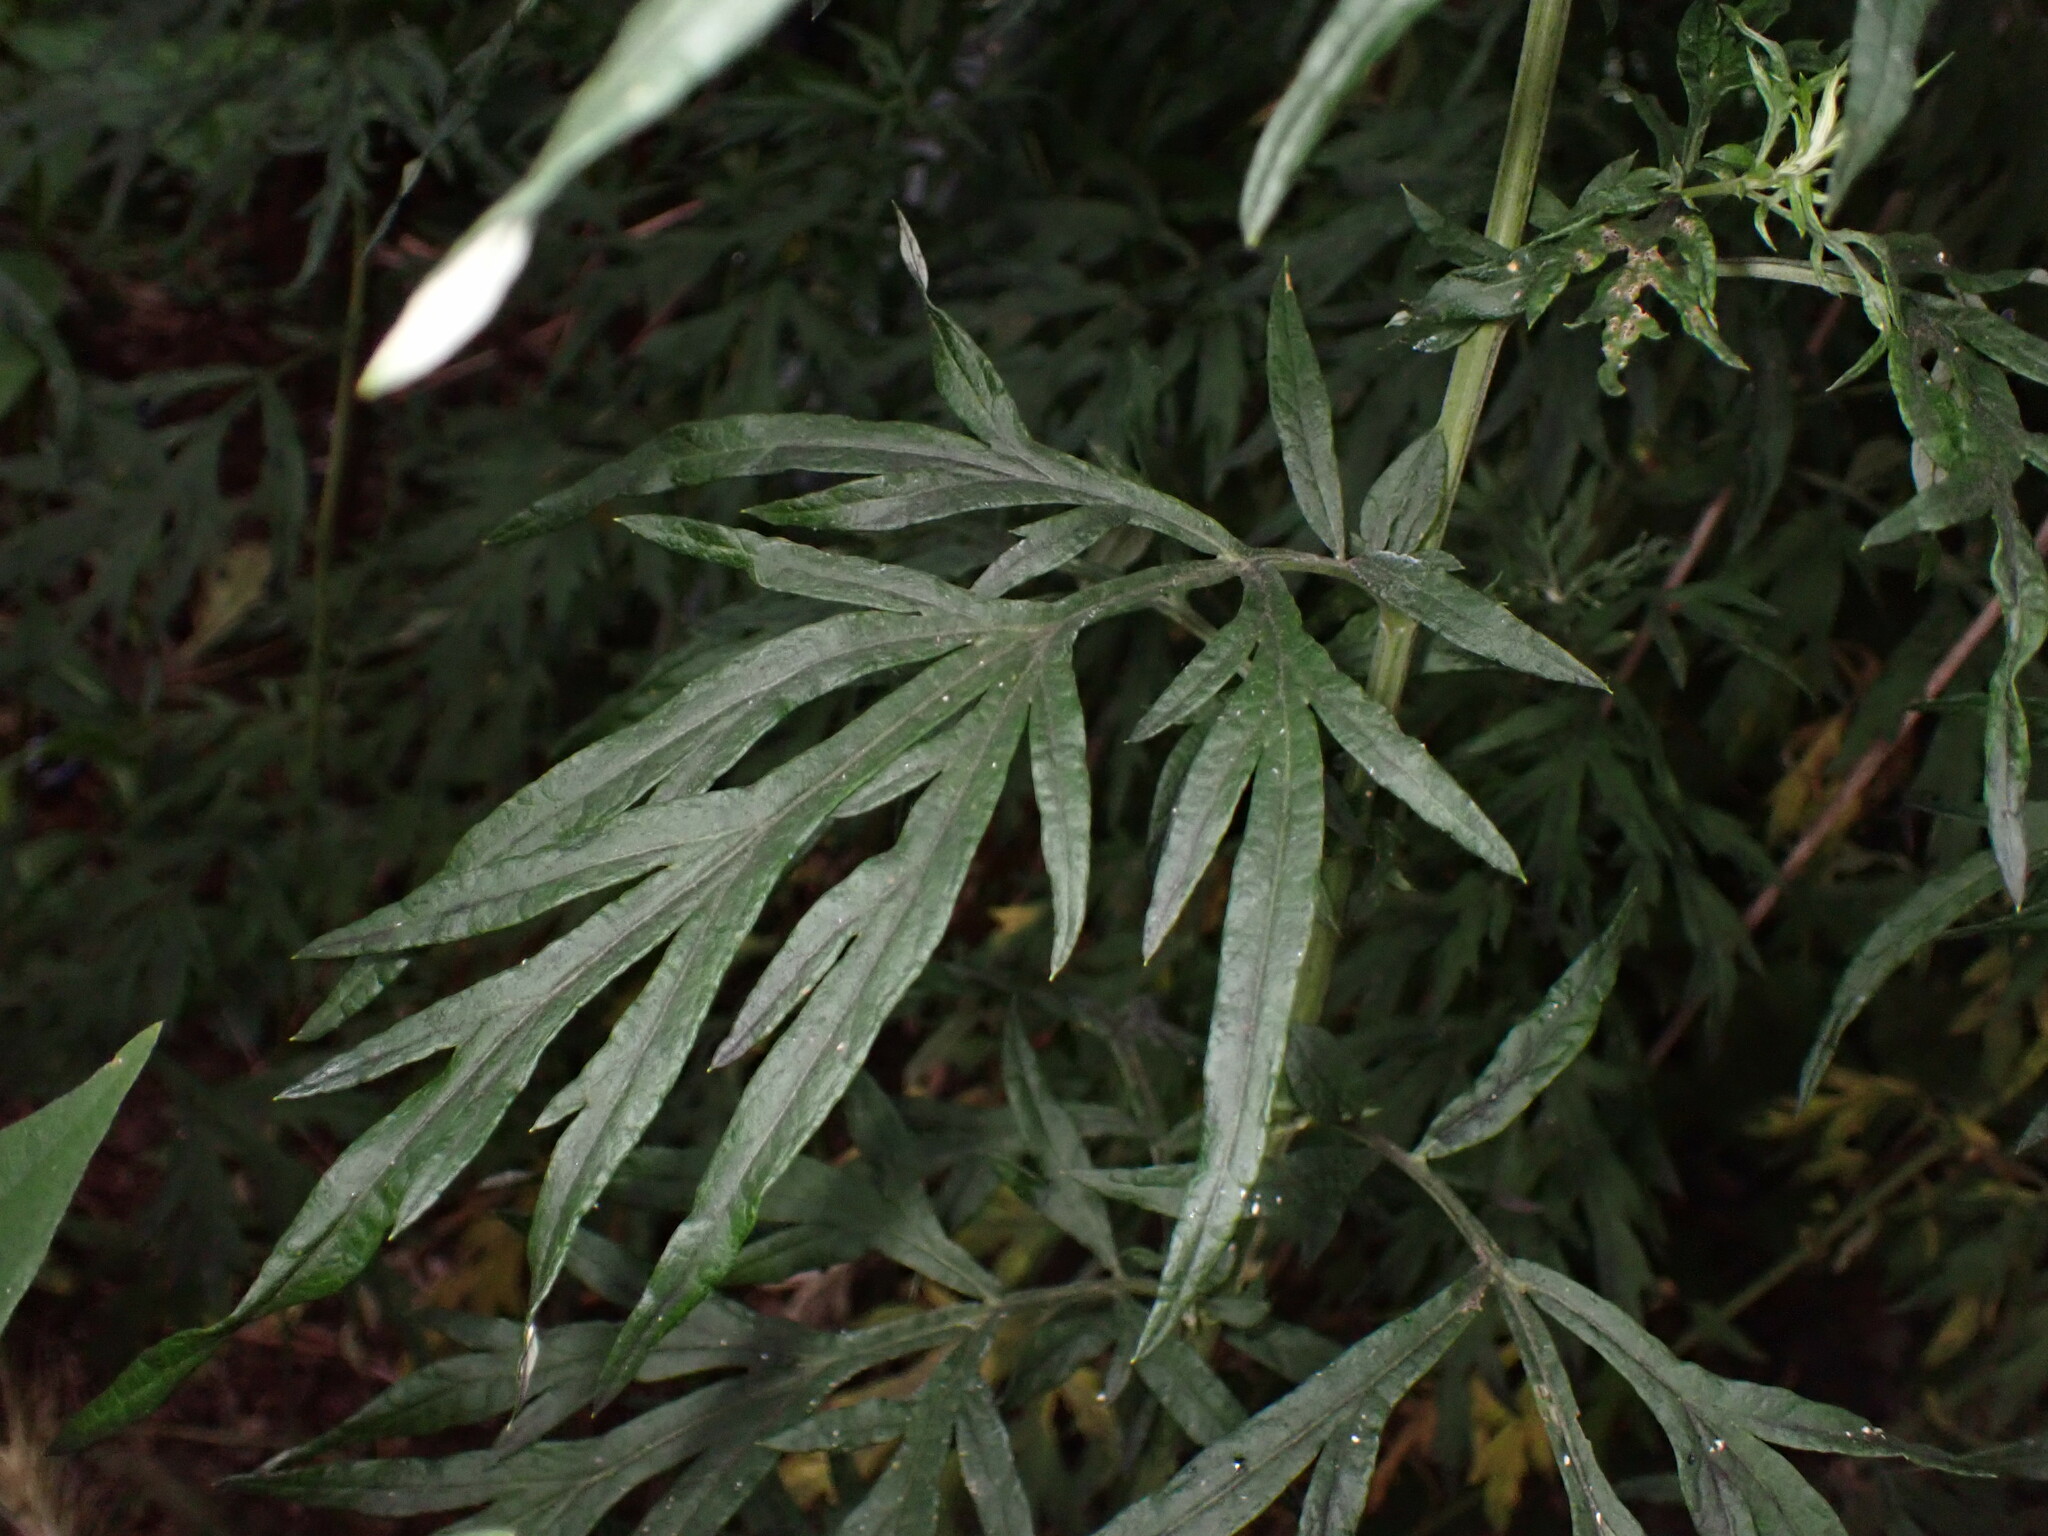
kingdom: Plantae
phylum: Tracheophyta
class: Magnoliopsida
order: Asterales
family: Asteraceae
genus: Artemisia
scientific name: Artemisia vulgaris
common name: Mugwort
